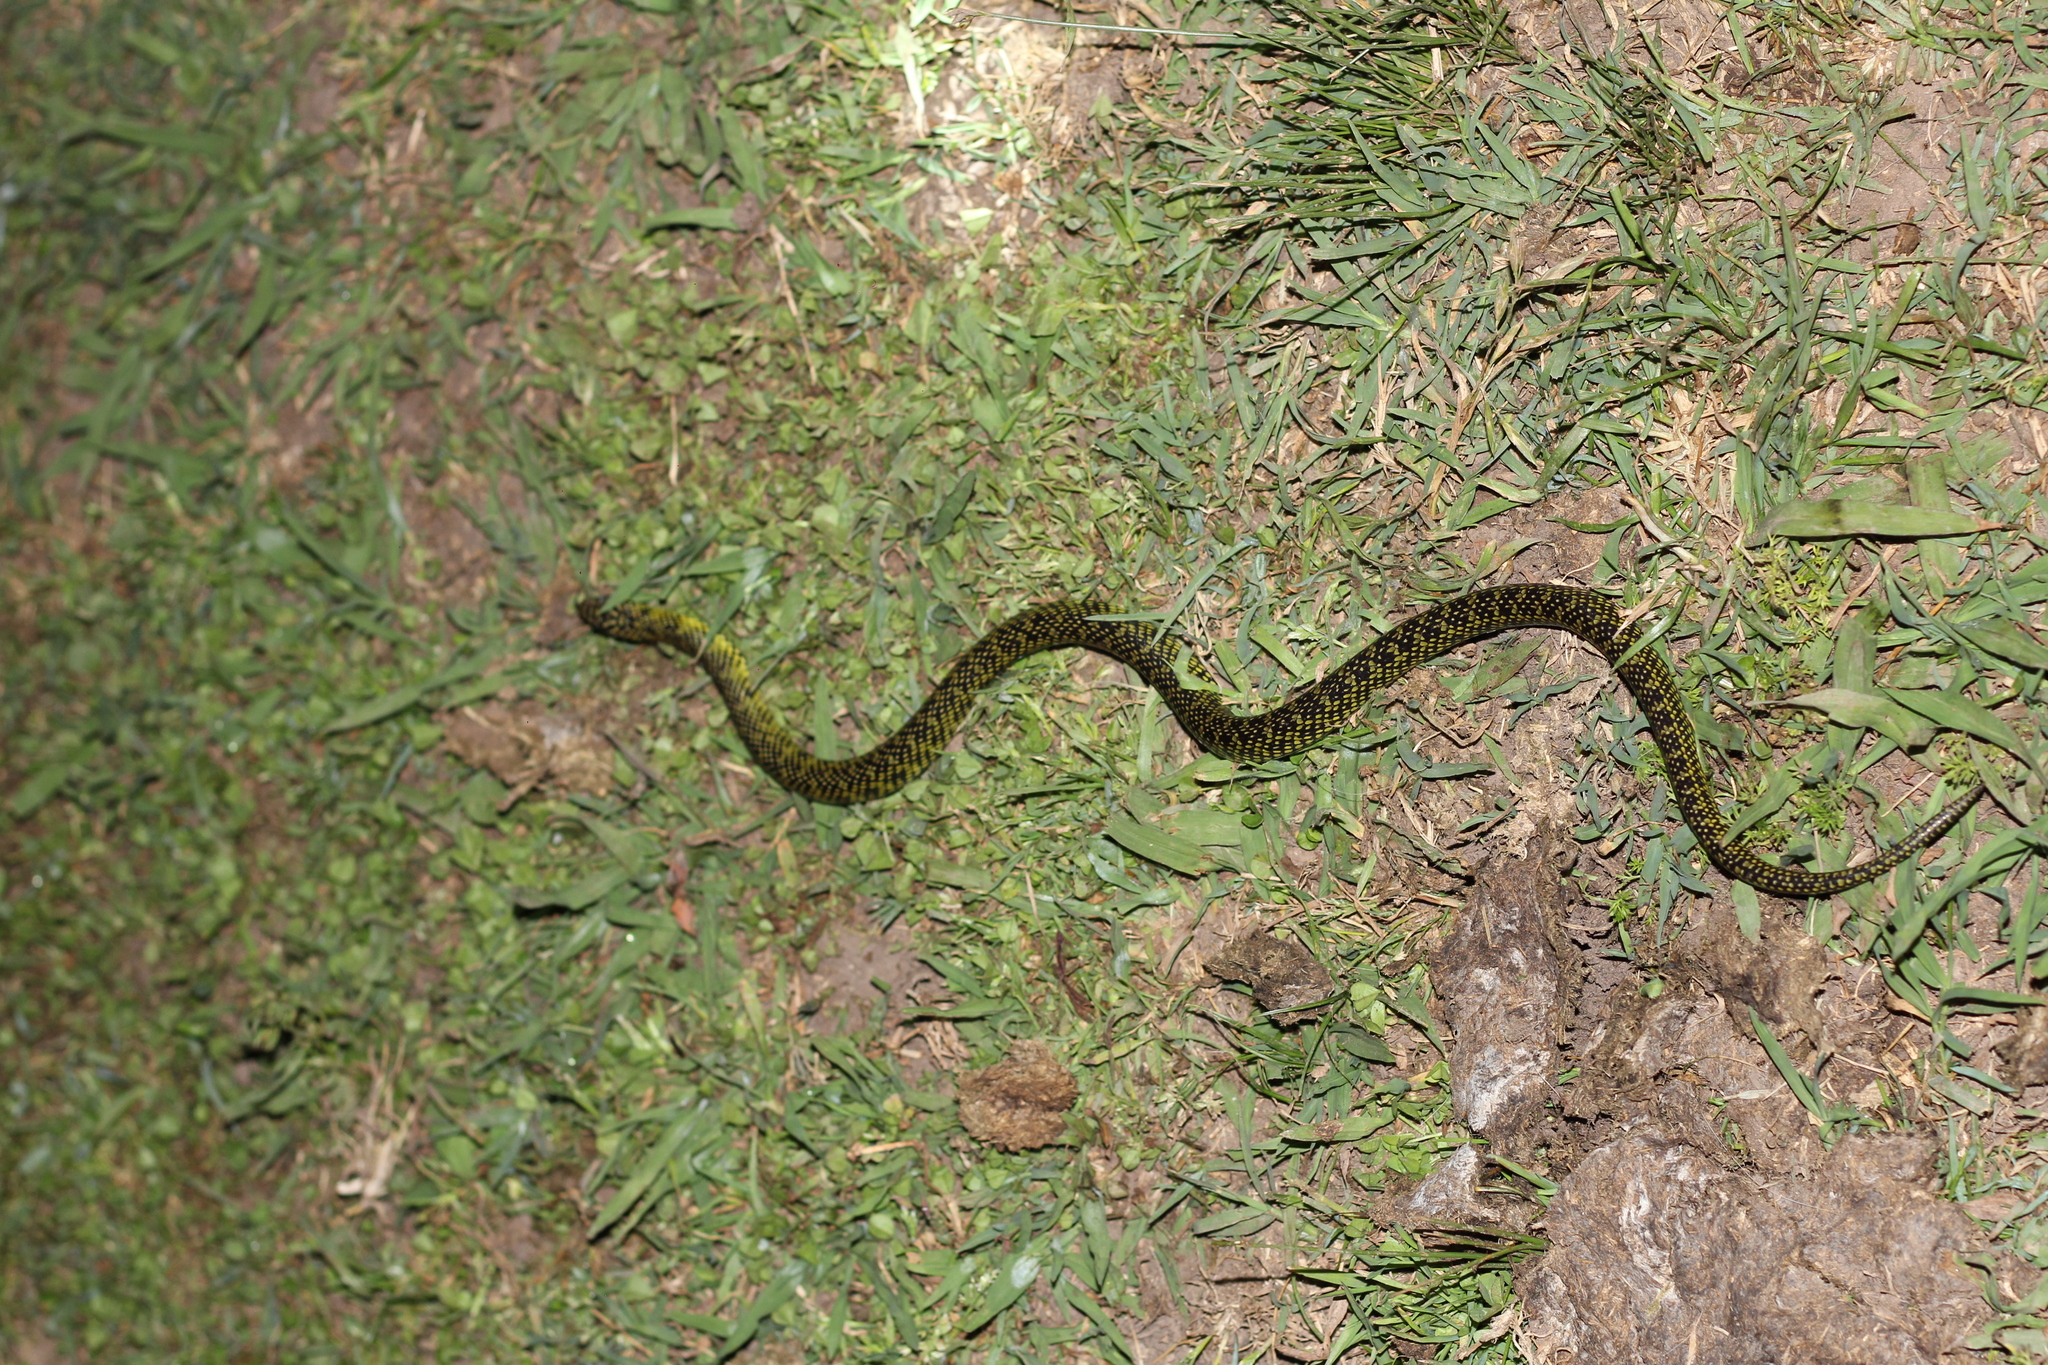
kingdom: Animalia
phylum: Chordata
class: Squamata
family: Colubridae
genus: Erythrolamprus
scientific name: Erythrolamprus poecilogyrus
